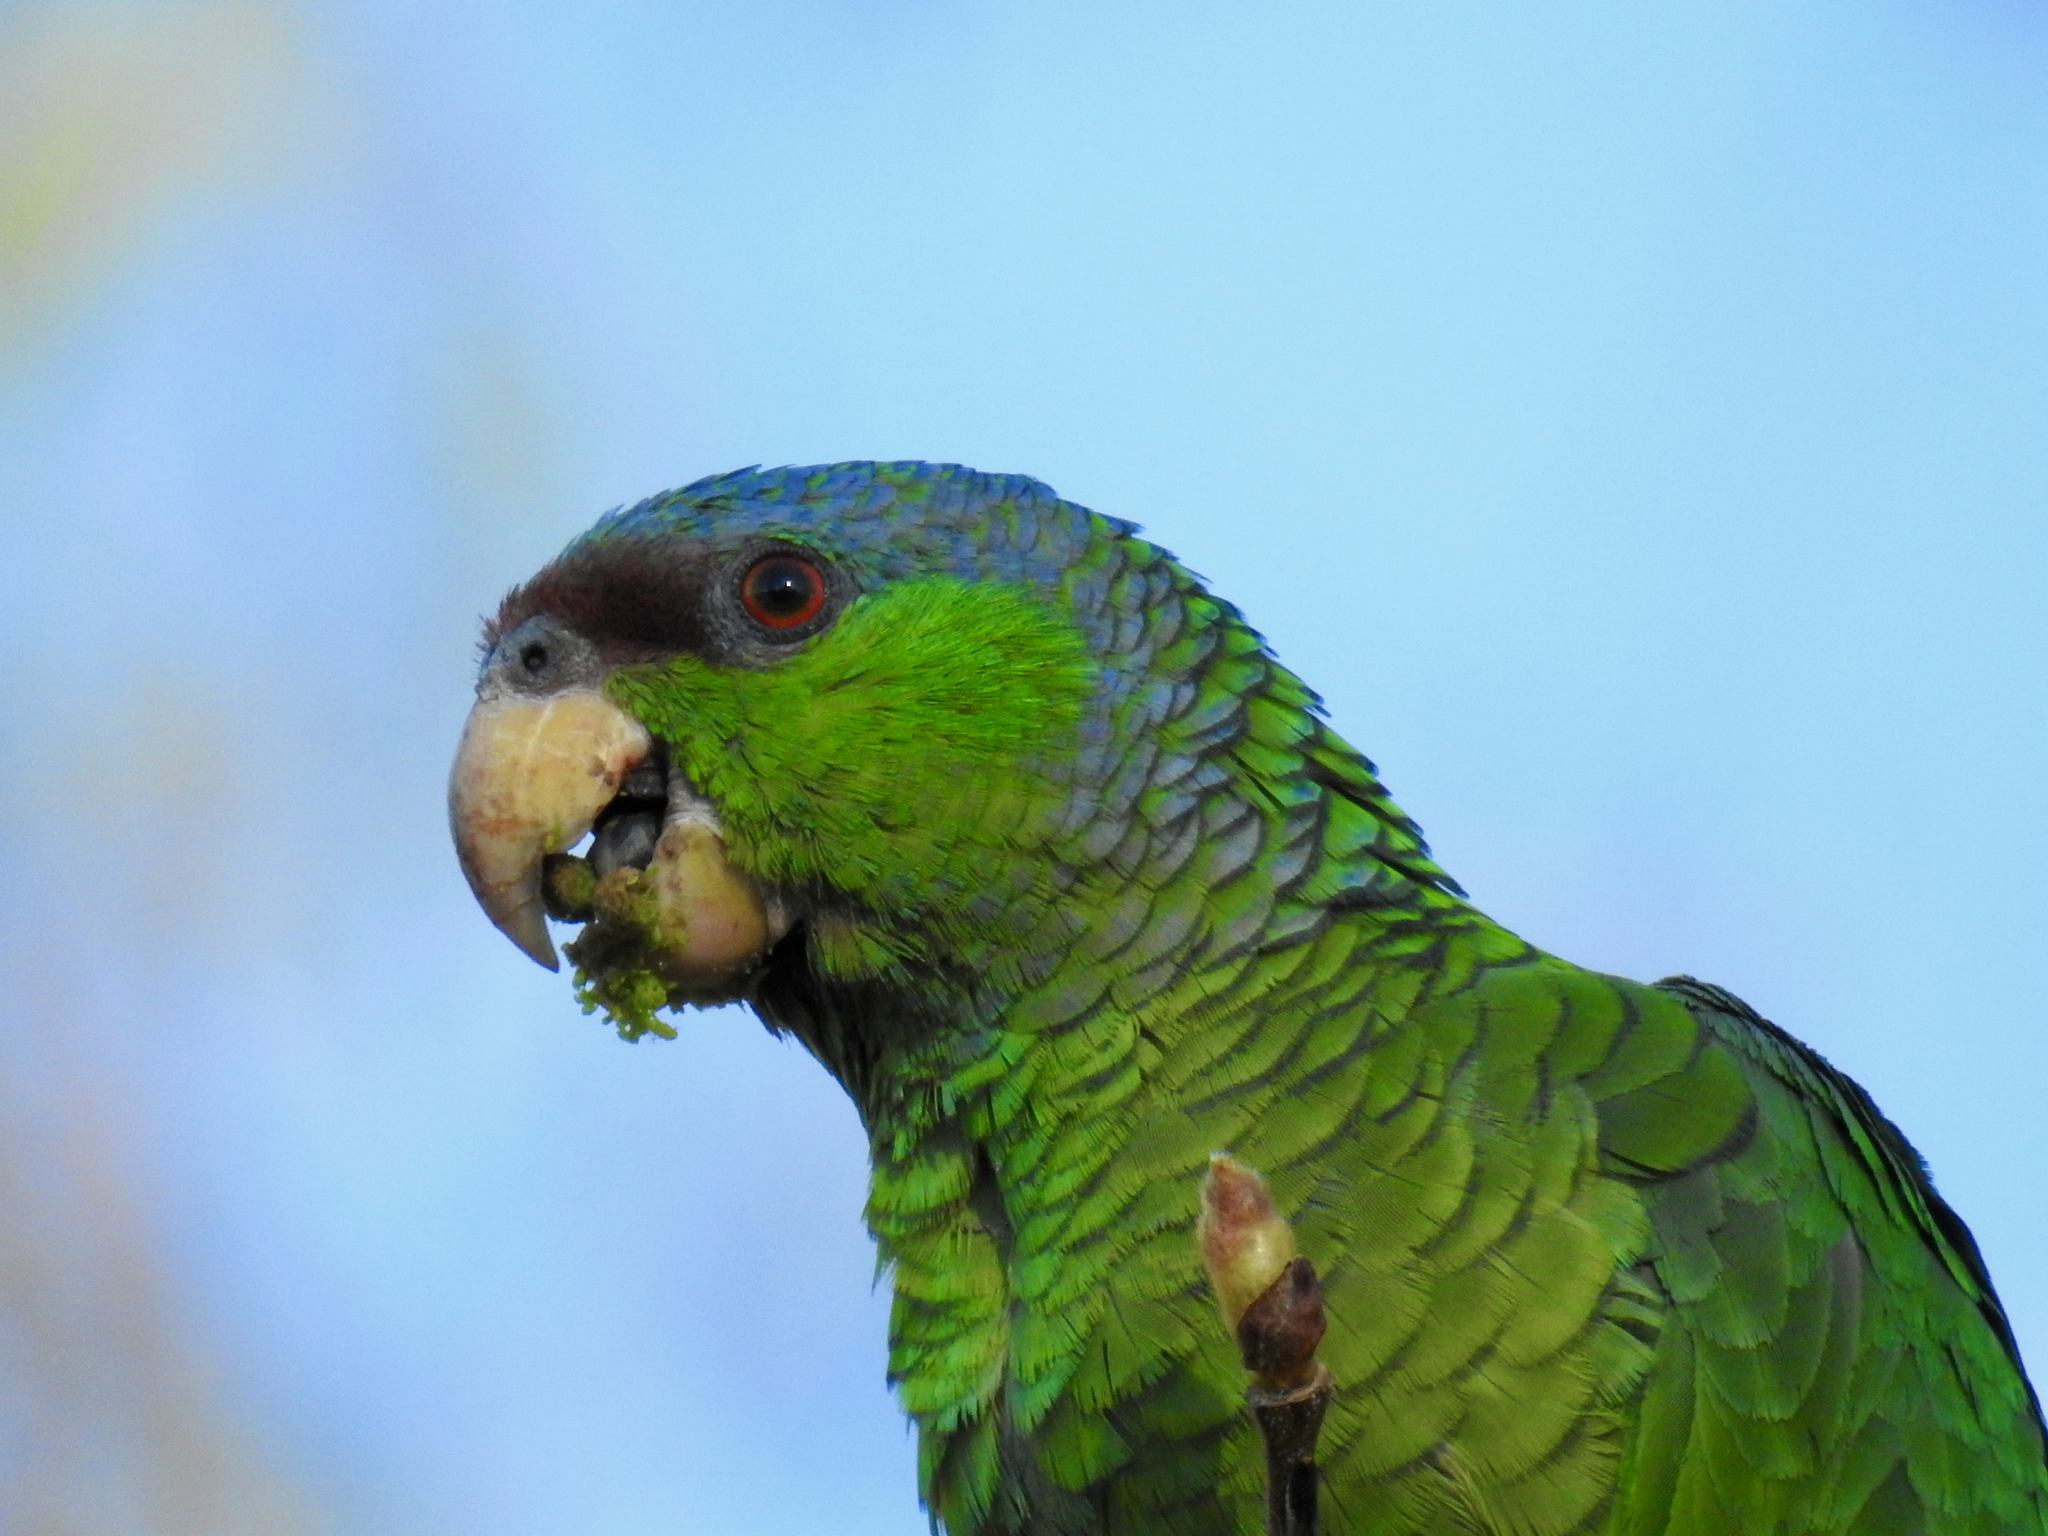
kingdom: Animalia
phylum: Chordata
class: Aves
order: Psittaciformes
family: Psittacidae
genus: Amazona
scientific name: Amazona finschi
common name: Lilac-crowned amazon
